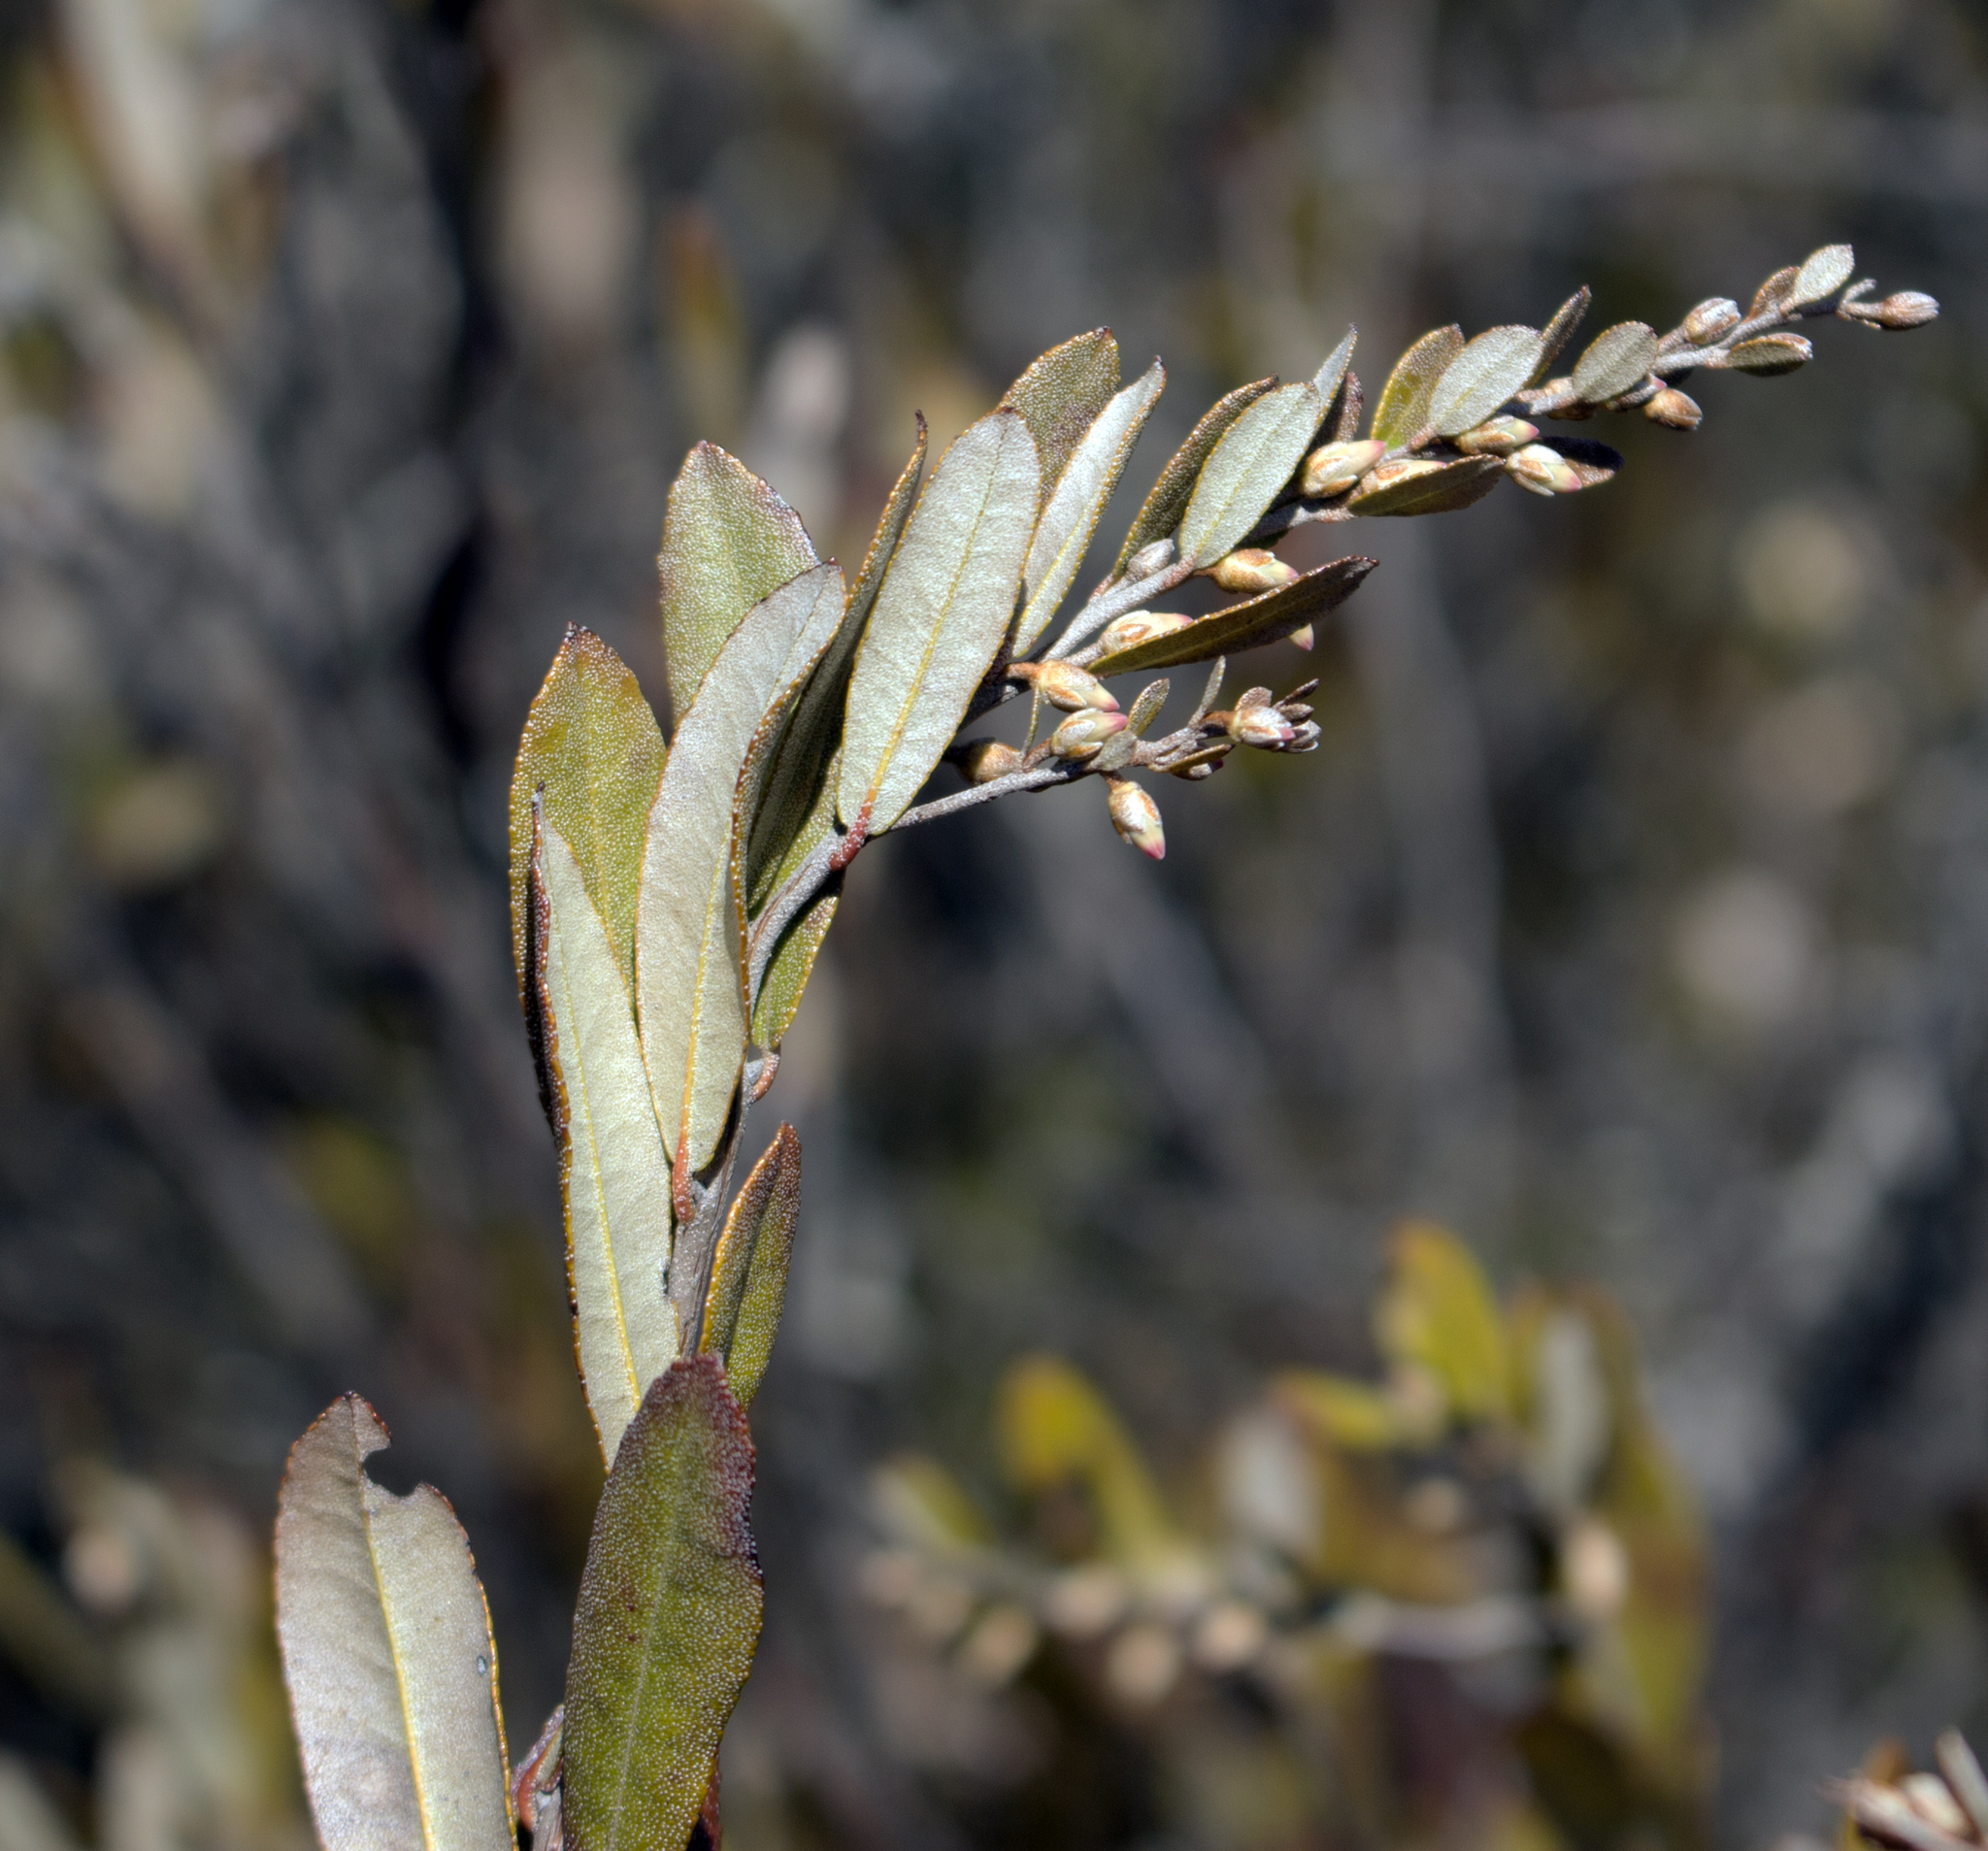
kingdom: Plantae
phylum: Tracheophyta
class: Magnoliopsida
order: Ericales
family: Ericaceae
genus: Chamaedaphne
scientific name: Chamaedaphne calyculata
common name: Leatherleaf
